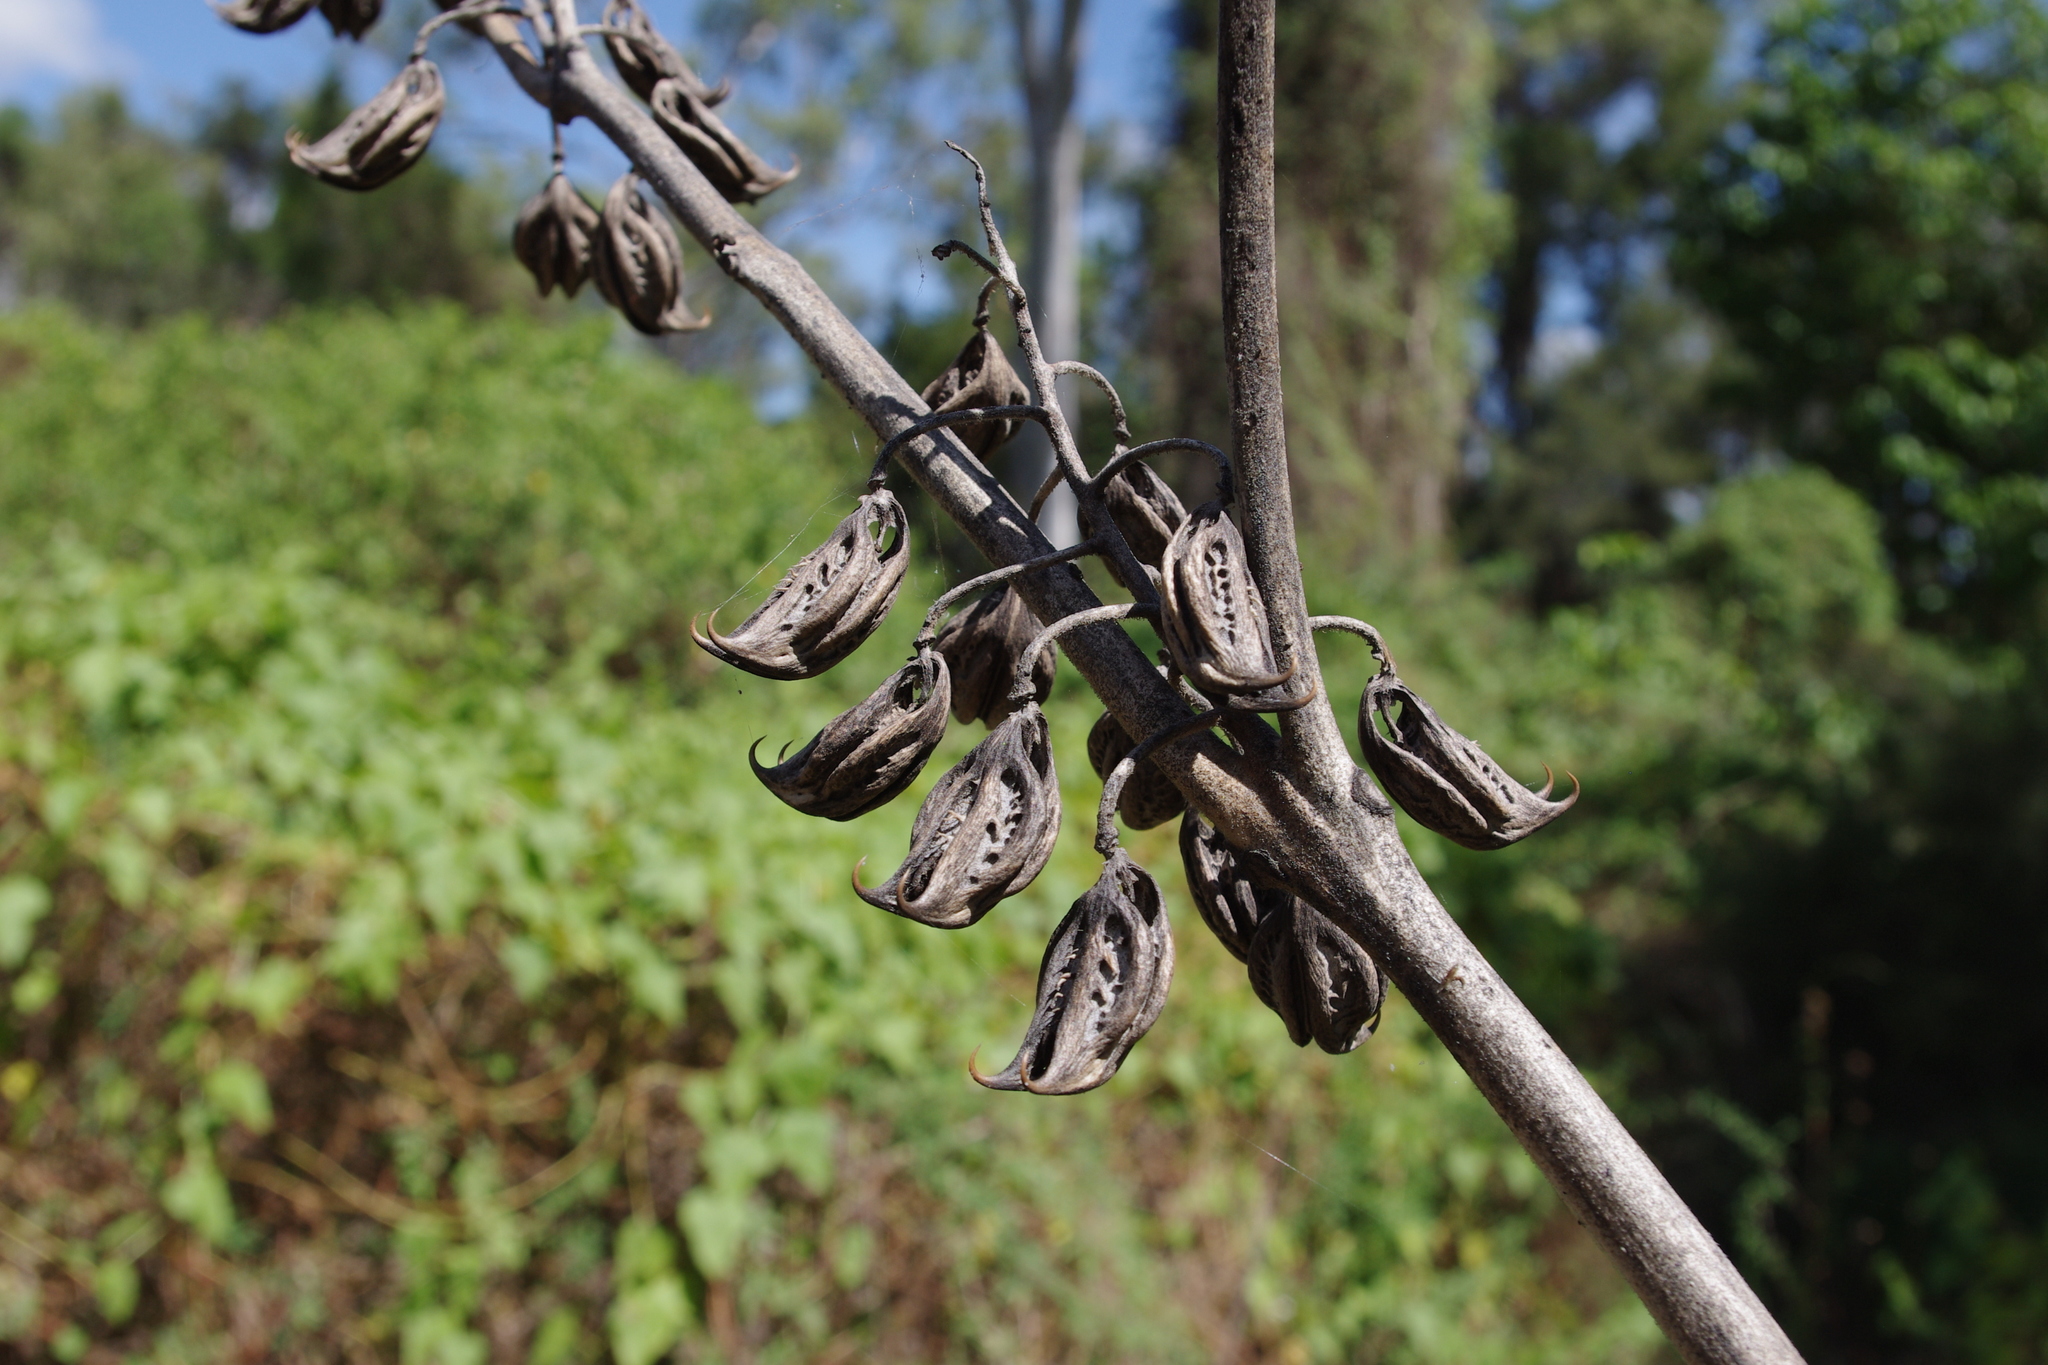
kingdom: Plantae
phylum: Tracheophyta
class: Magnoliopsida
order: Lamiales
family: Martyniaceae
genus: Martynia
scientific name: Martynia annua
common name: Tiger's-claw
